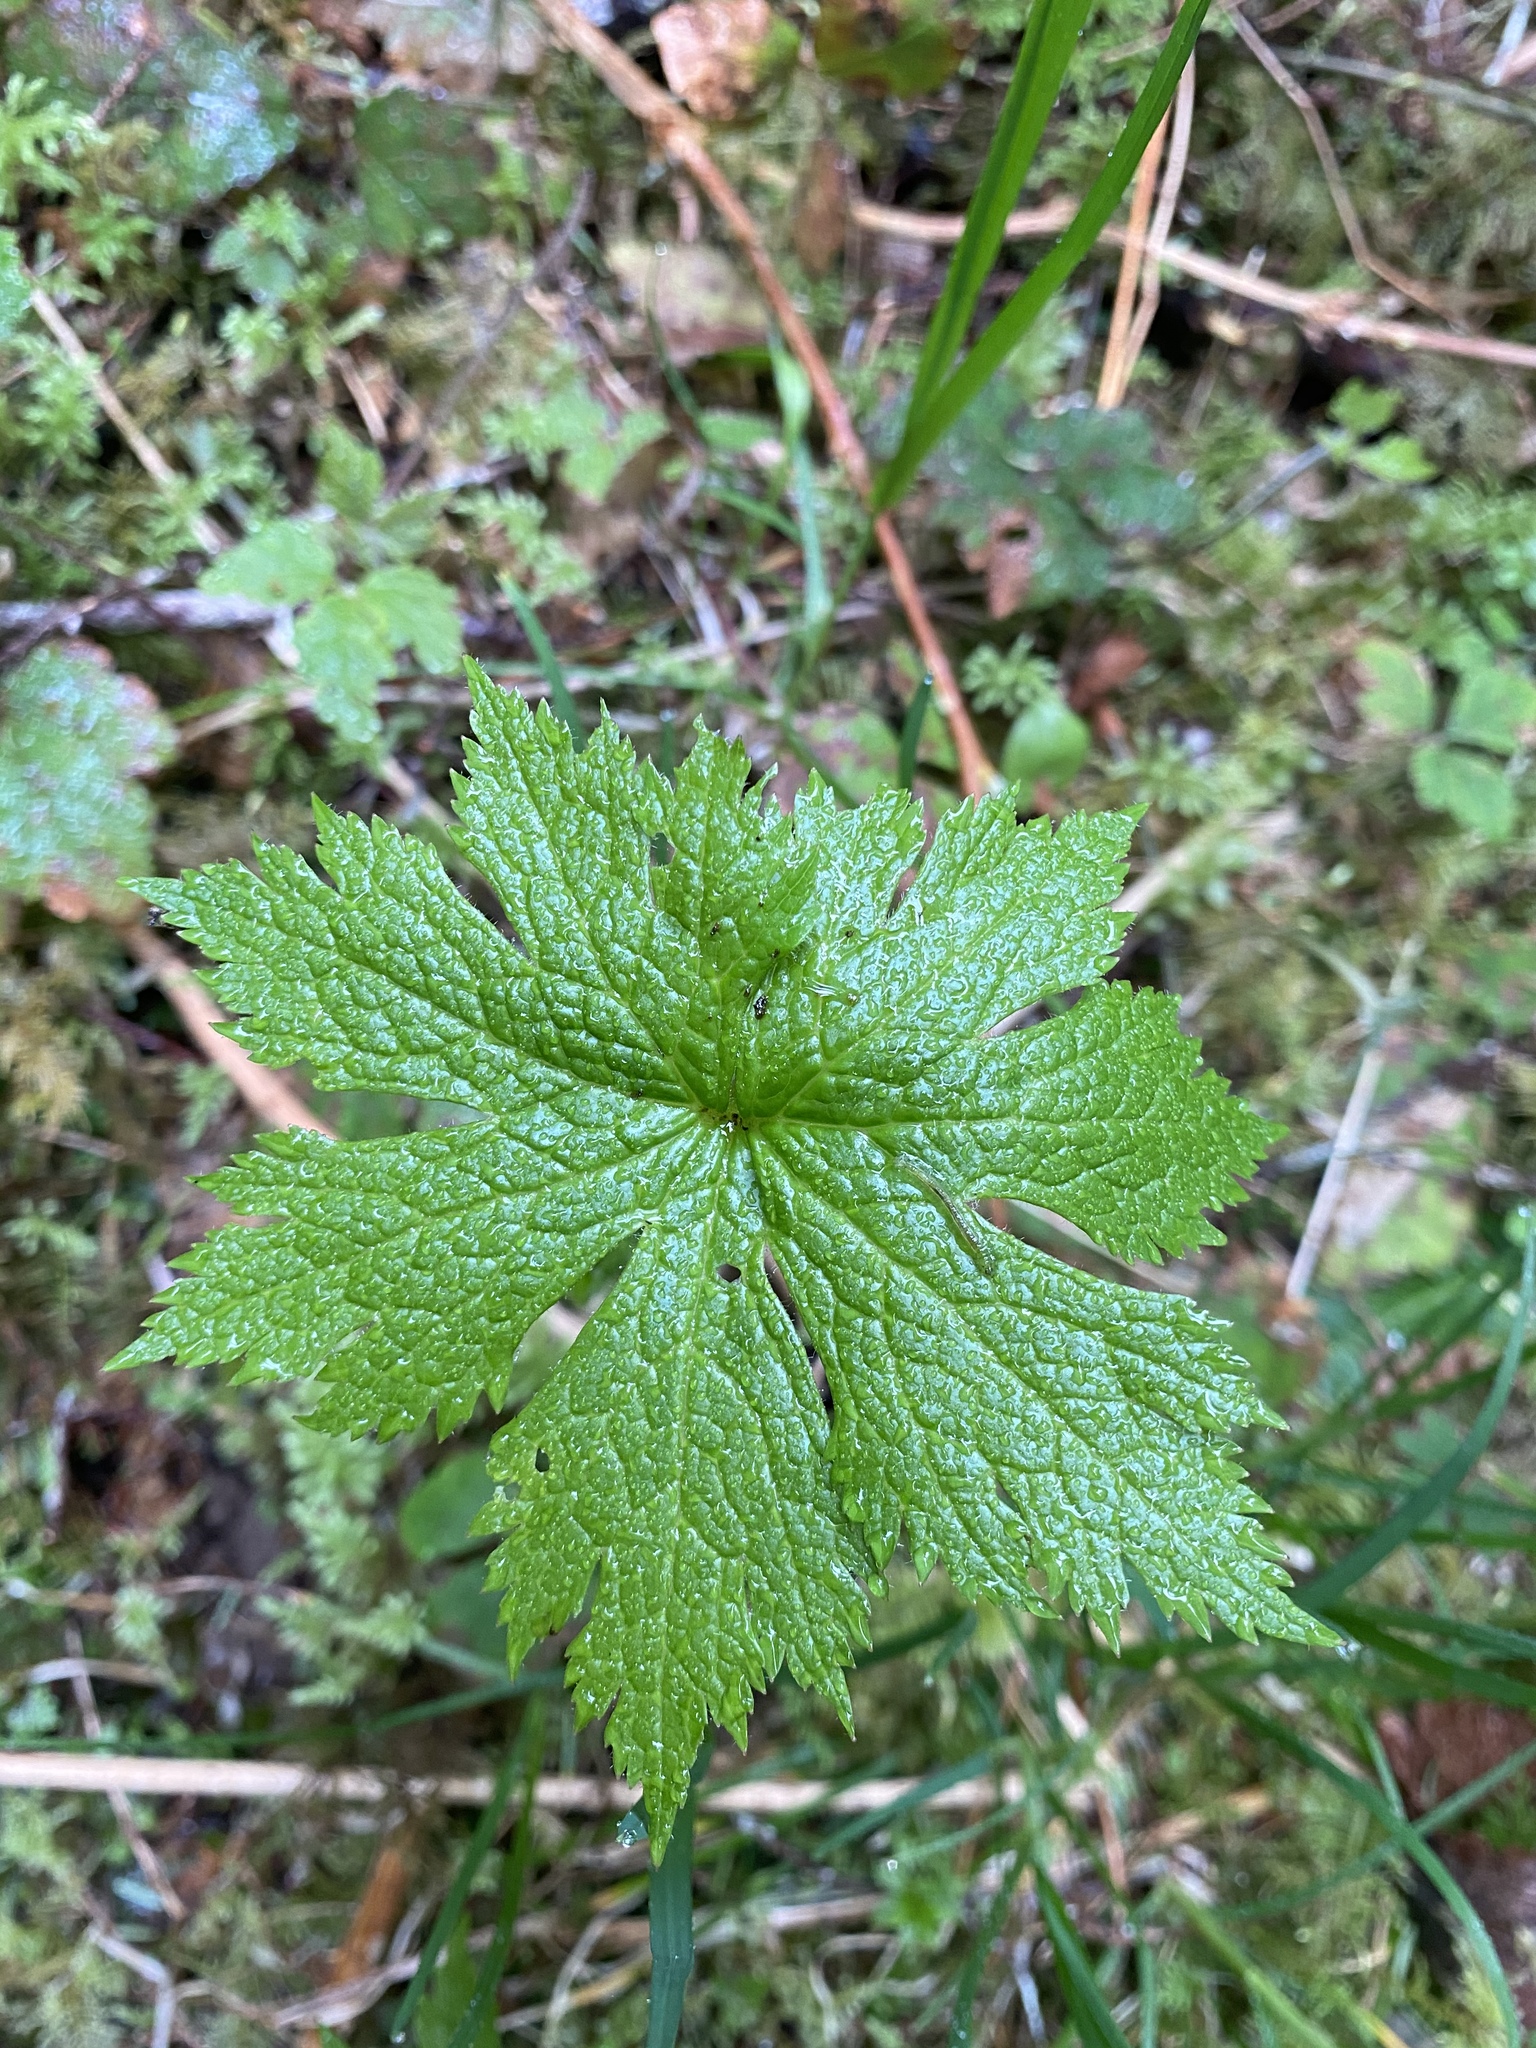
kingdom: Plantae
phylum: Tracheophyta
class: Magnoliopsida
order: Ranunculales
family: Ranunculaceae
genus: Trautvetteria
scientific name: Trautvetteria carolinensis
